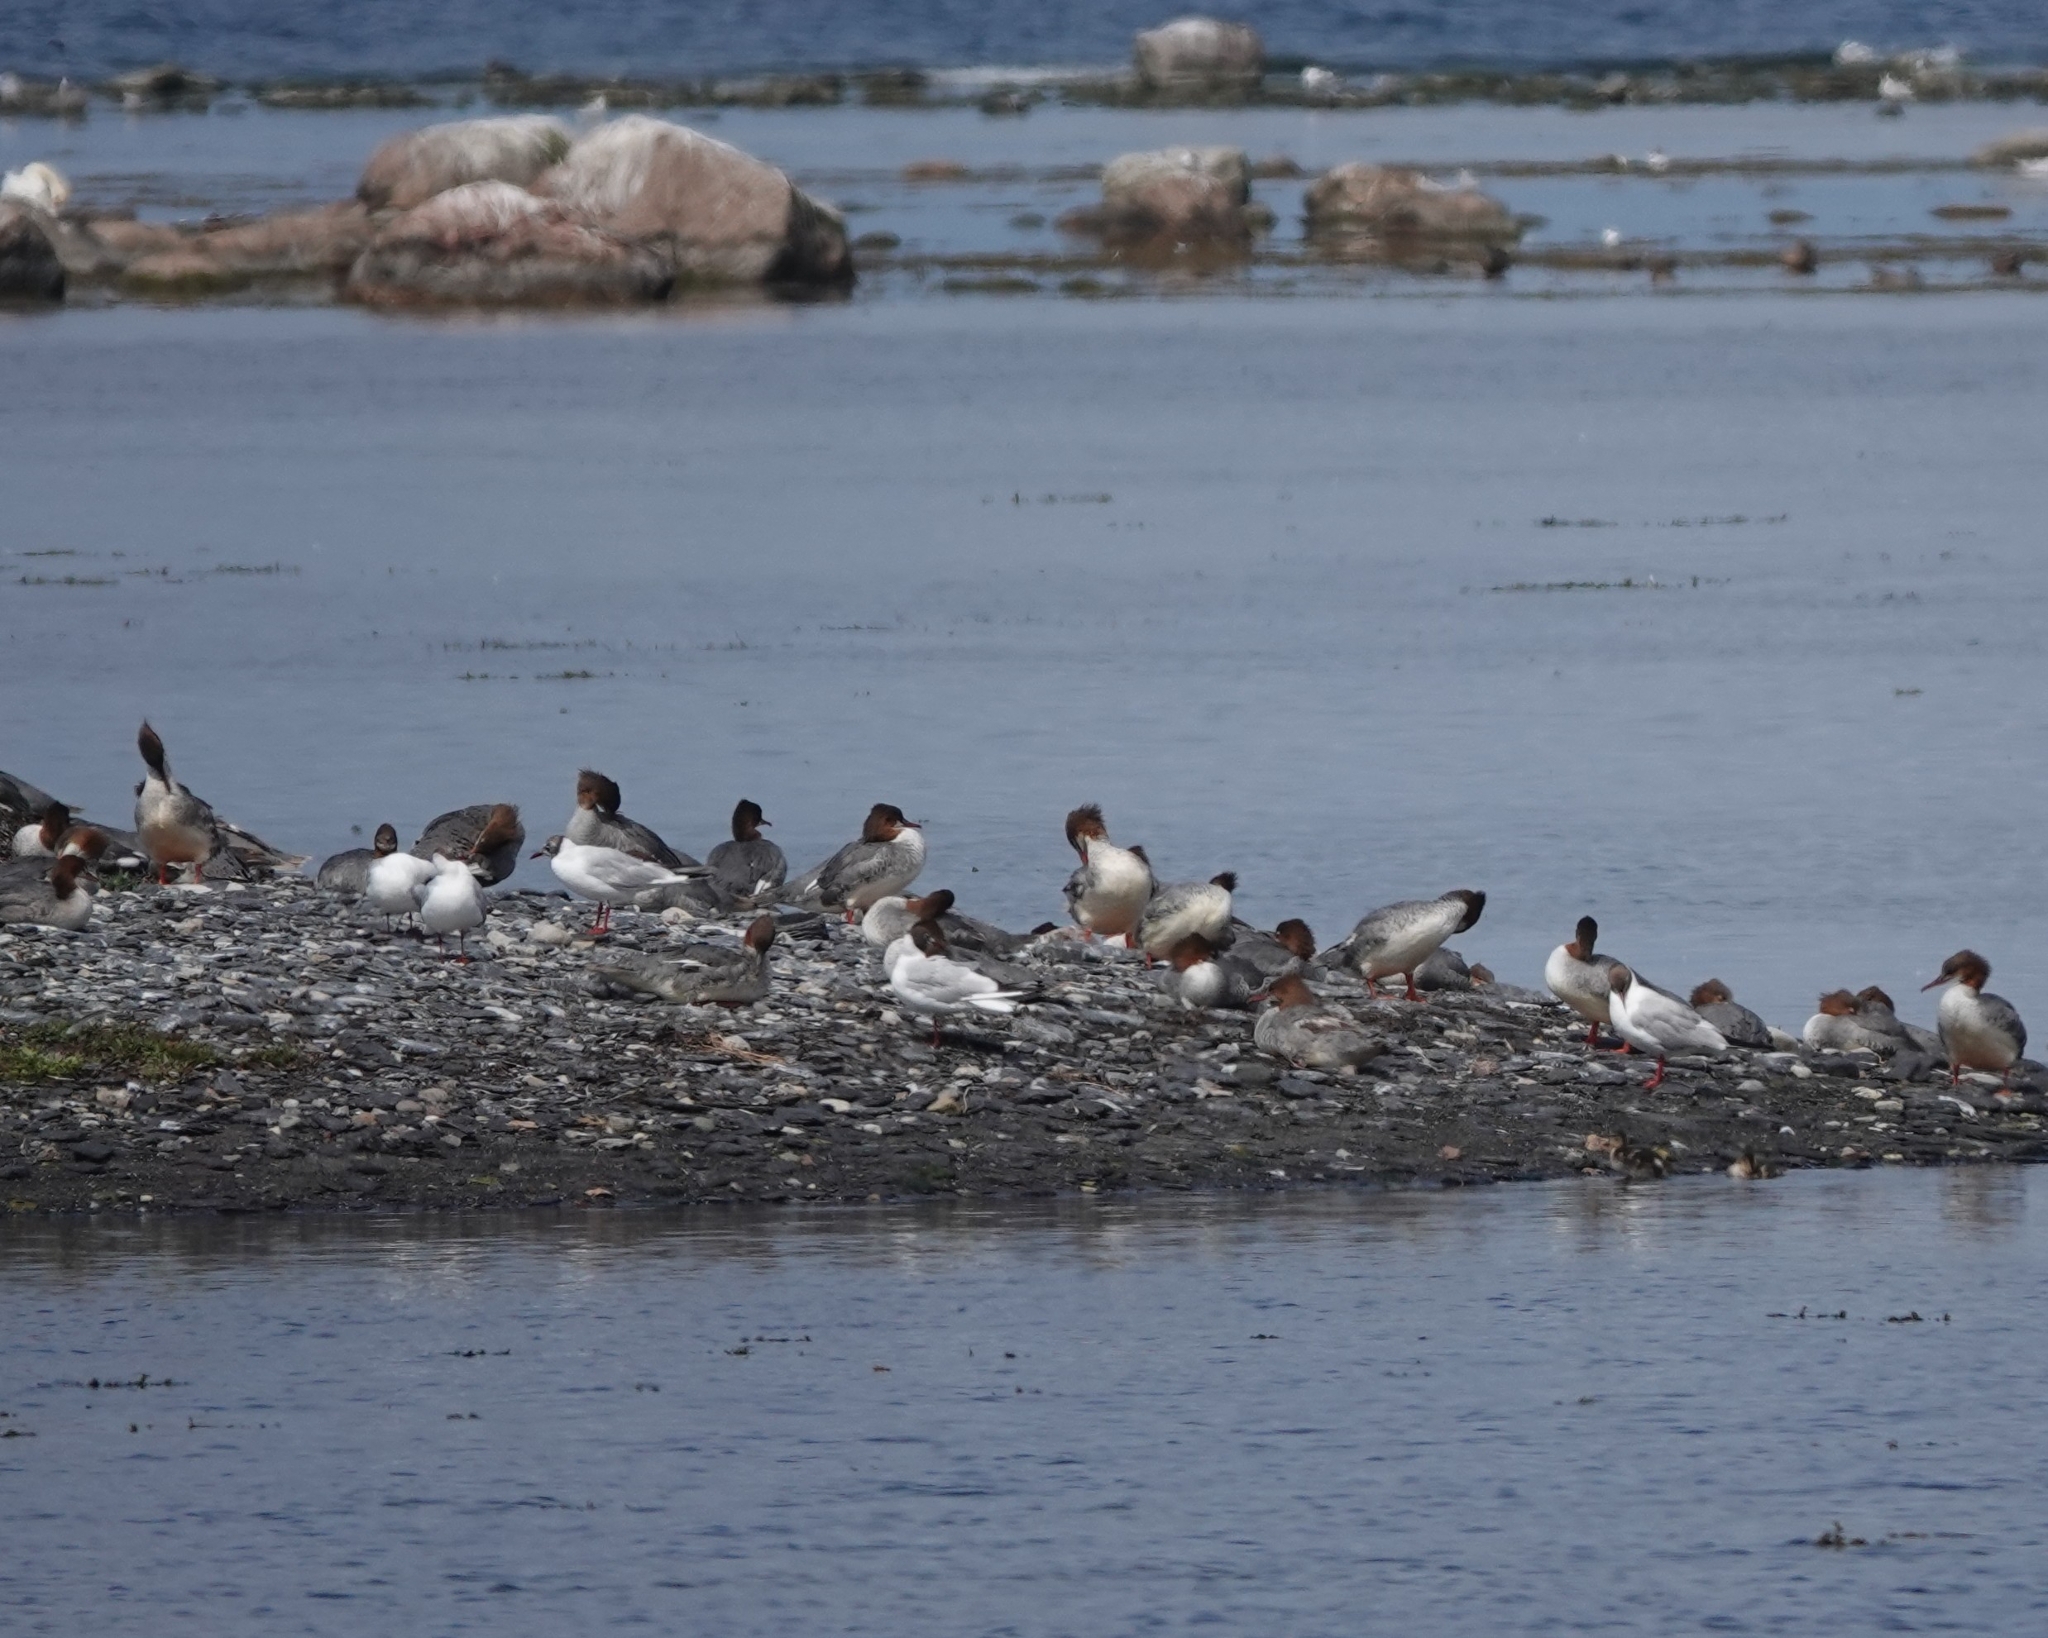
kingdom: Animalia
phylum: Chordata
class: Aves
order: Anseriformes
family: Anatidae
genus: Mergus
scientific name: Mergus merganser
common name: Common merganser
